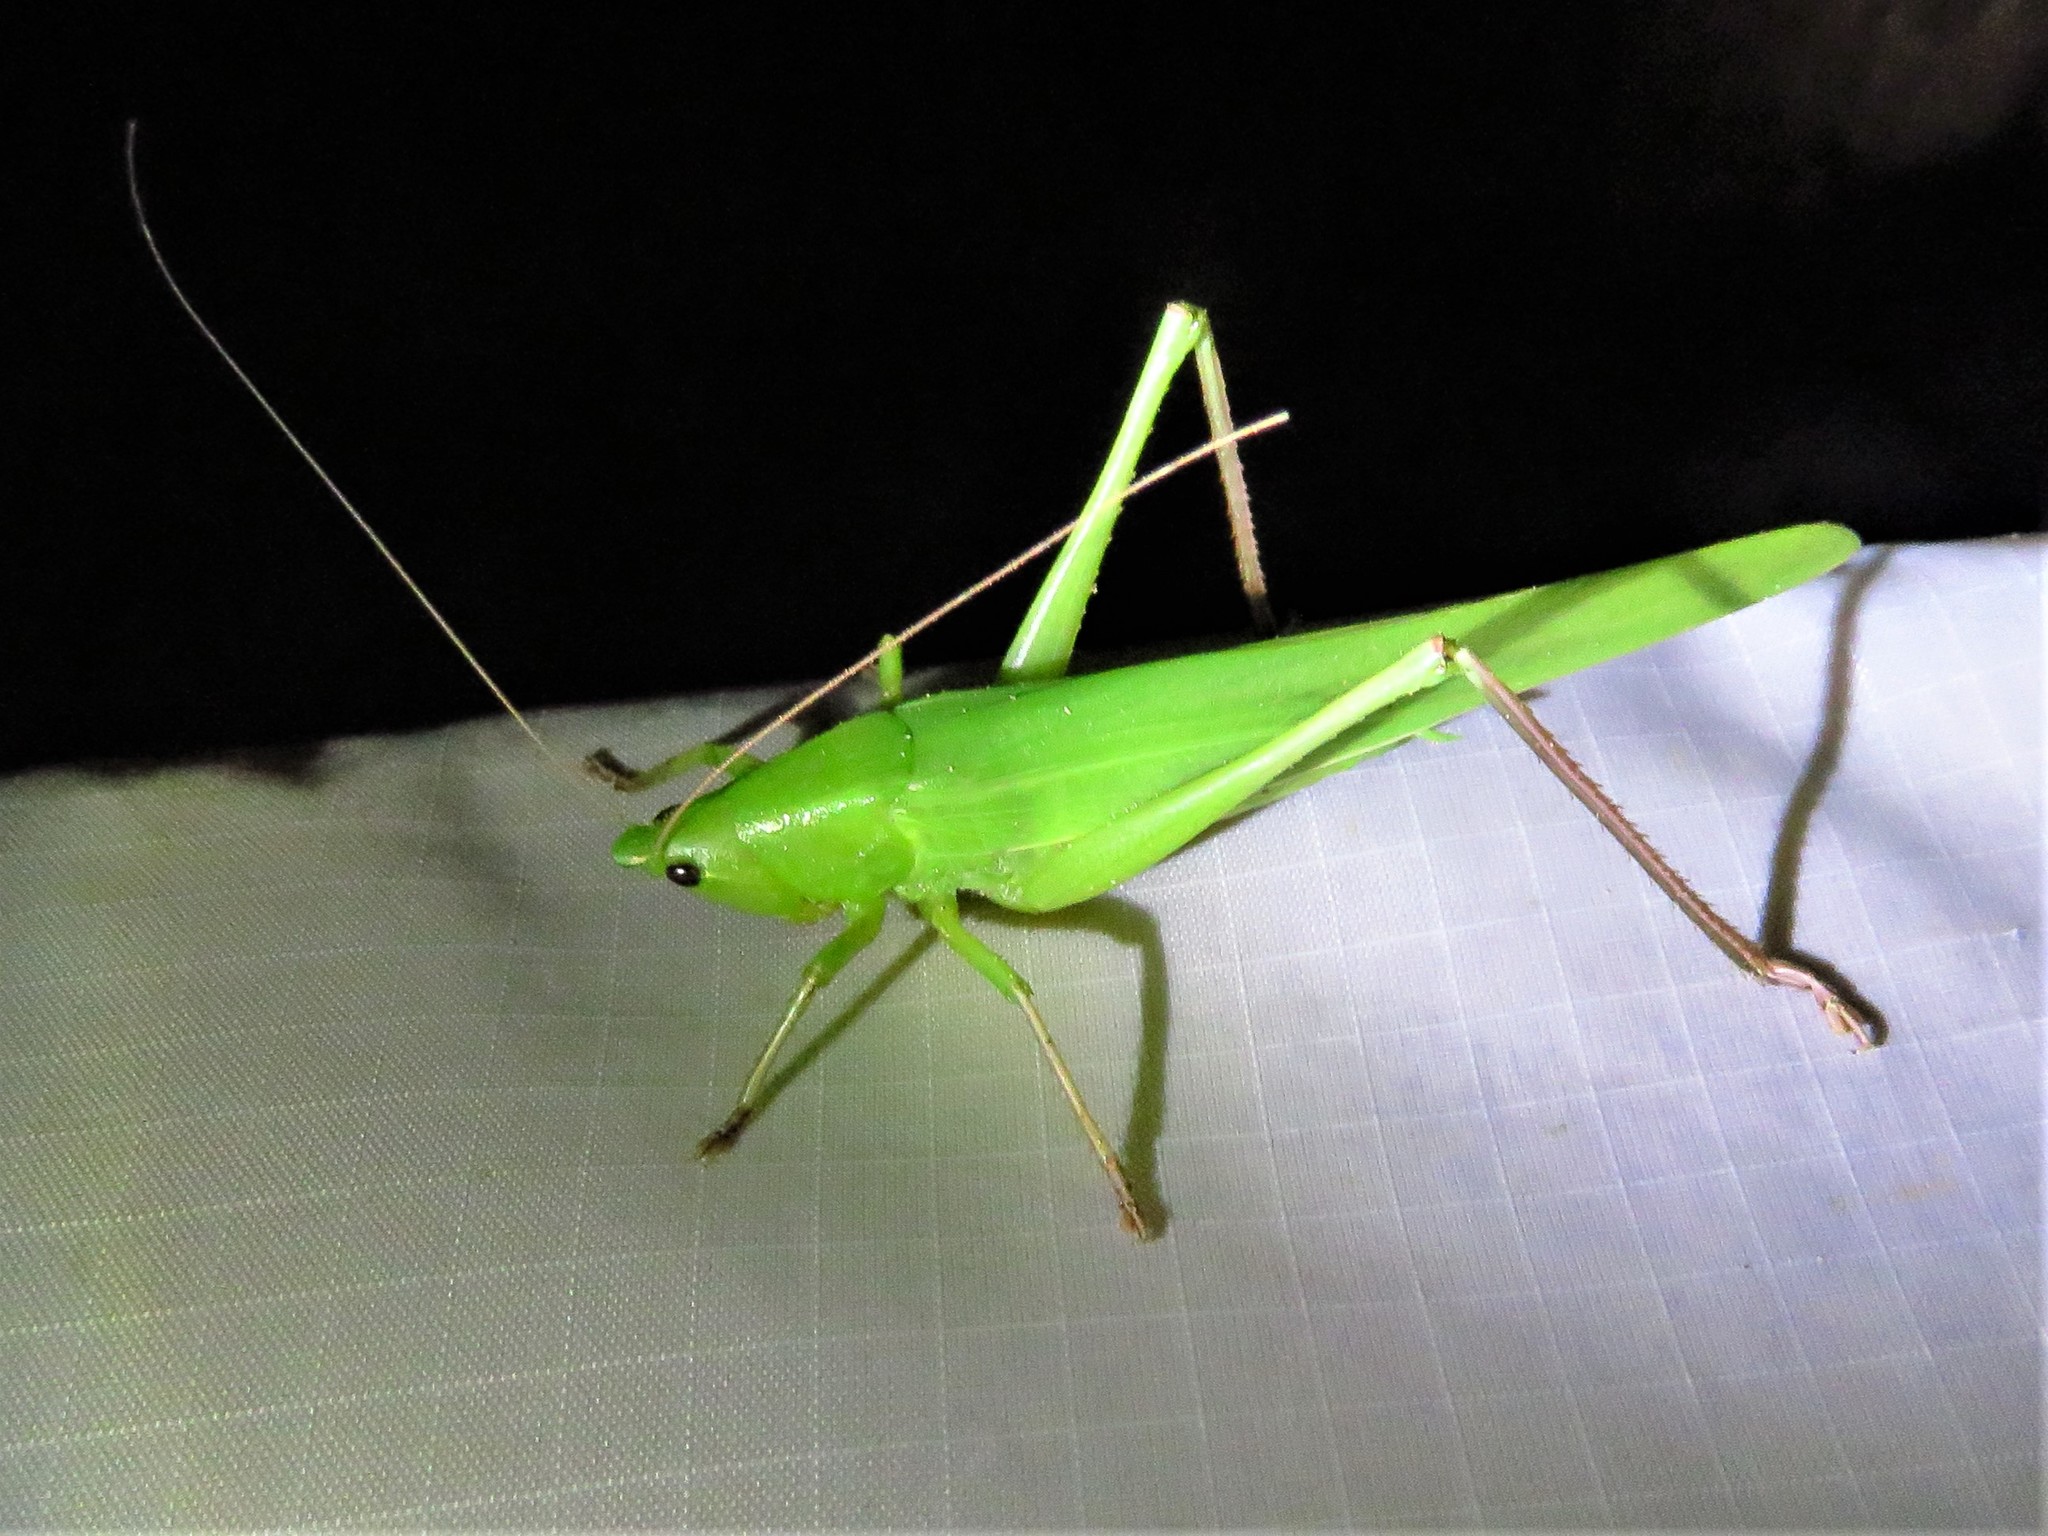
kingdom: Animalia
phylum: Arthropoda
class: Insecta
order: Orthoptera
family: Tettigoniidae
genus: Neoconocephalus
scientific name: Neoconocephalus triops
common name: Broad-tipped conehead
